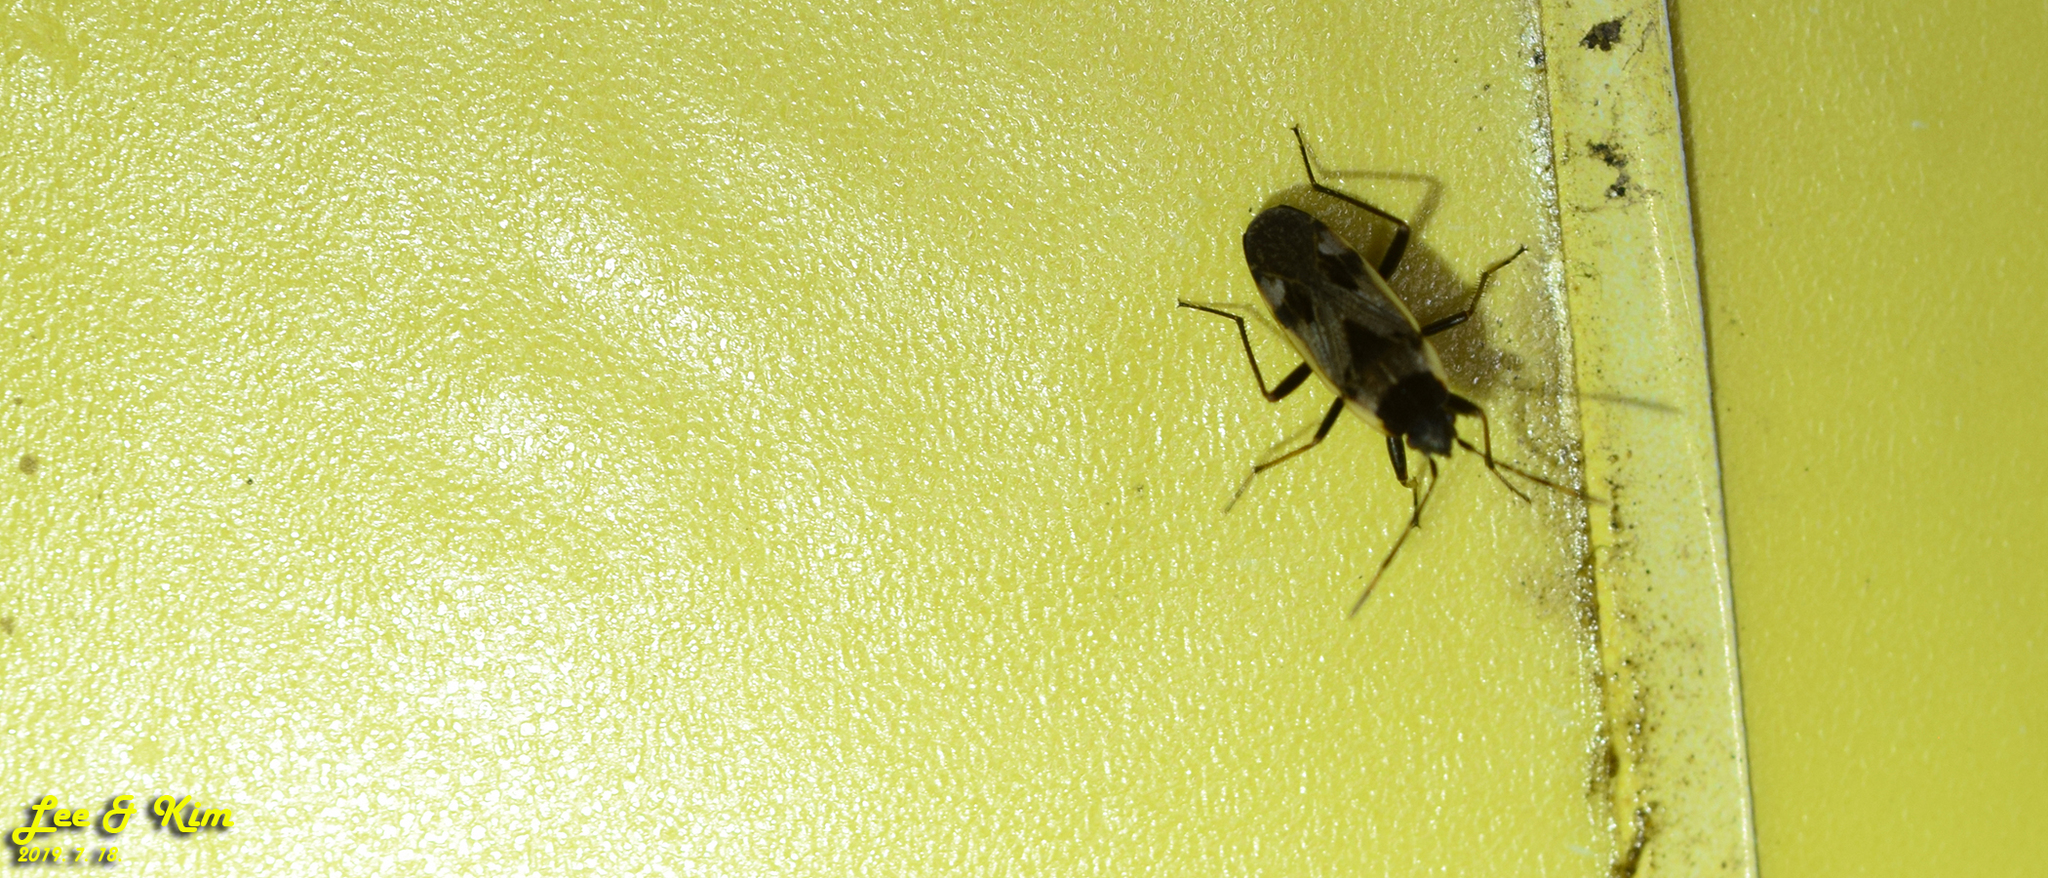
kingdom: Animalia
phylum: Arthropoda
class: Insecta
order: Hemiptera
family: Rhyparochromidae
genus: Panaorus
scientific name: Panaorus albomaculatus
